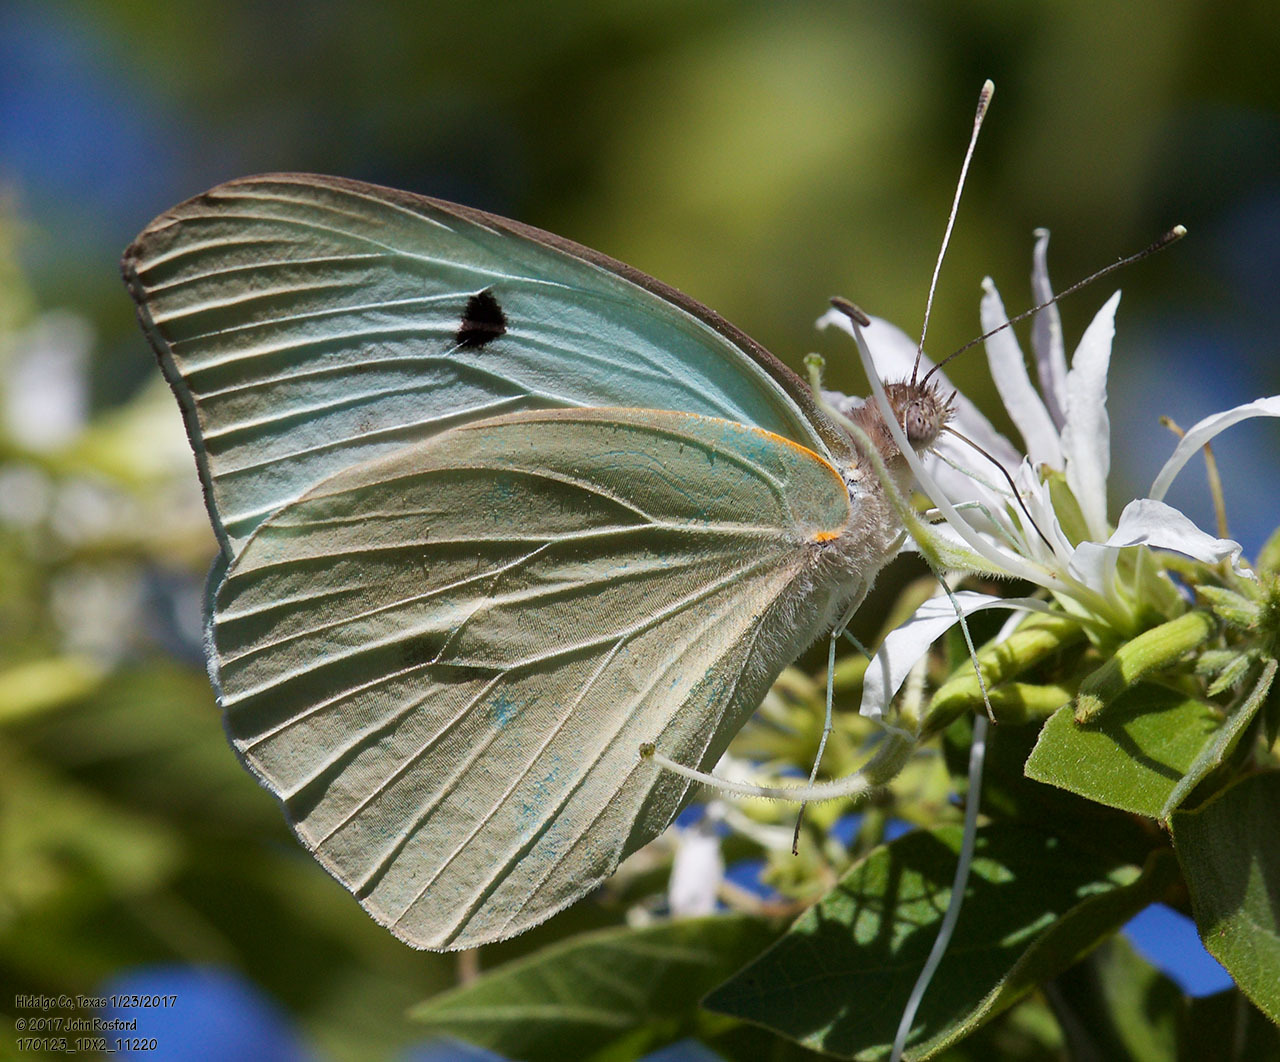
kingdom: Animalia
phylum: Arthropoda
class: Insecta
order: Lepidoptera
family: Pieridae
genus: Ganyra
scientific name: Ganyra josephina
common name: Giant white
